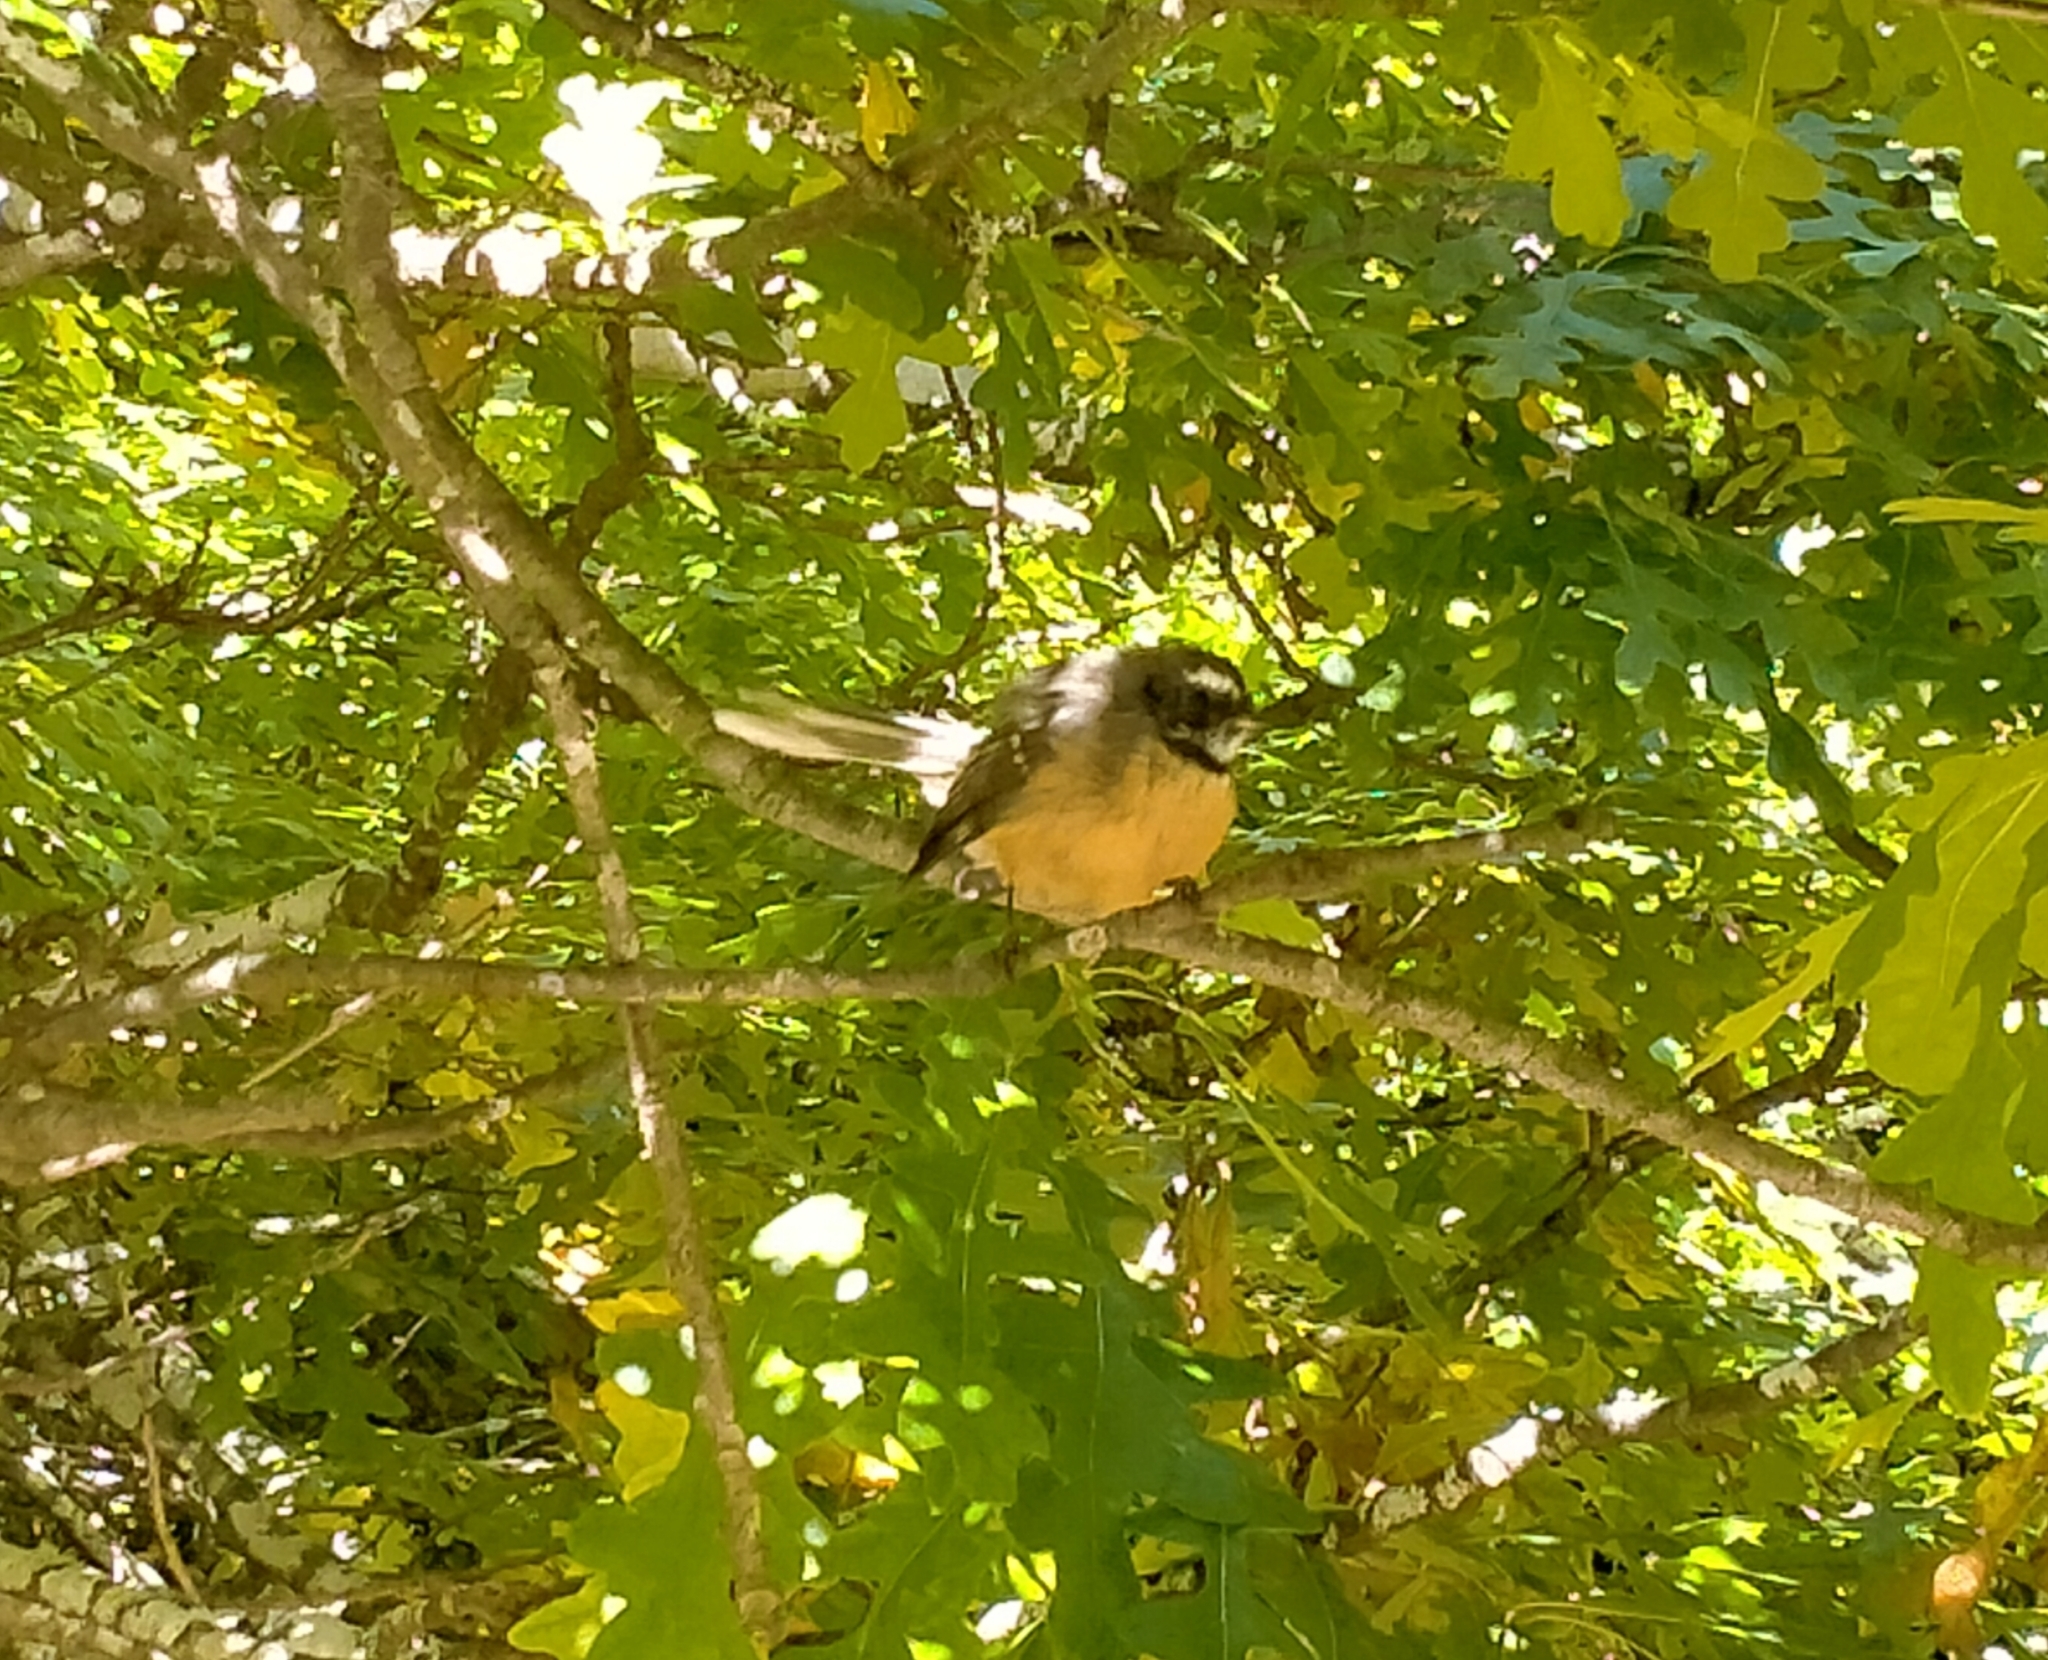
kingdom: Animalia
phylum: Chordata
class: Aves
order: Passeriformes
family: Rhipiduridae
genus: Rhipidura
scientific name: Rhipidura fuliginosa
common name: New zealand fantail
